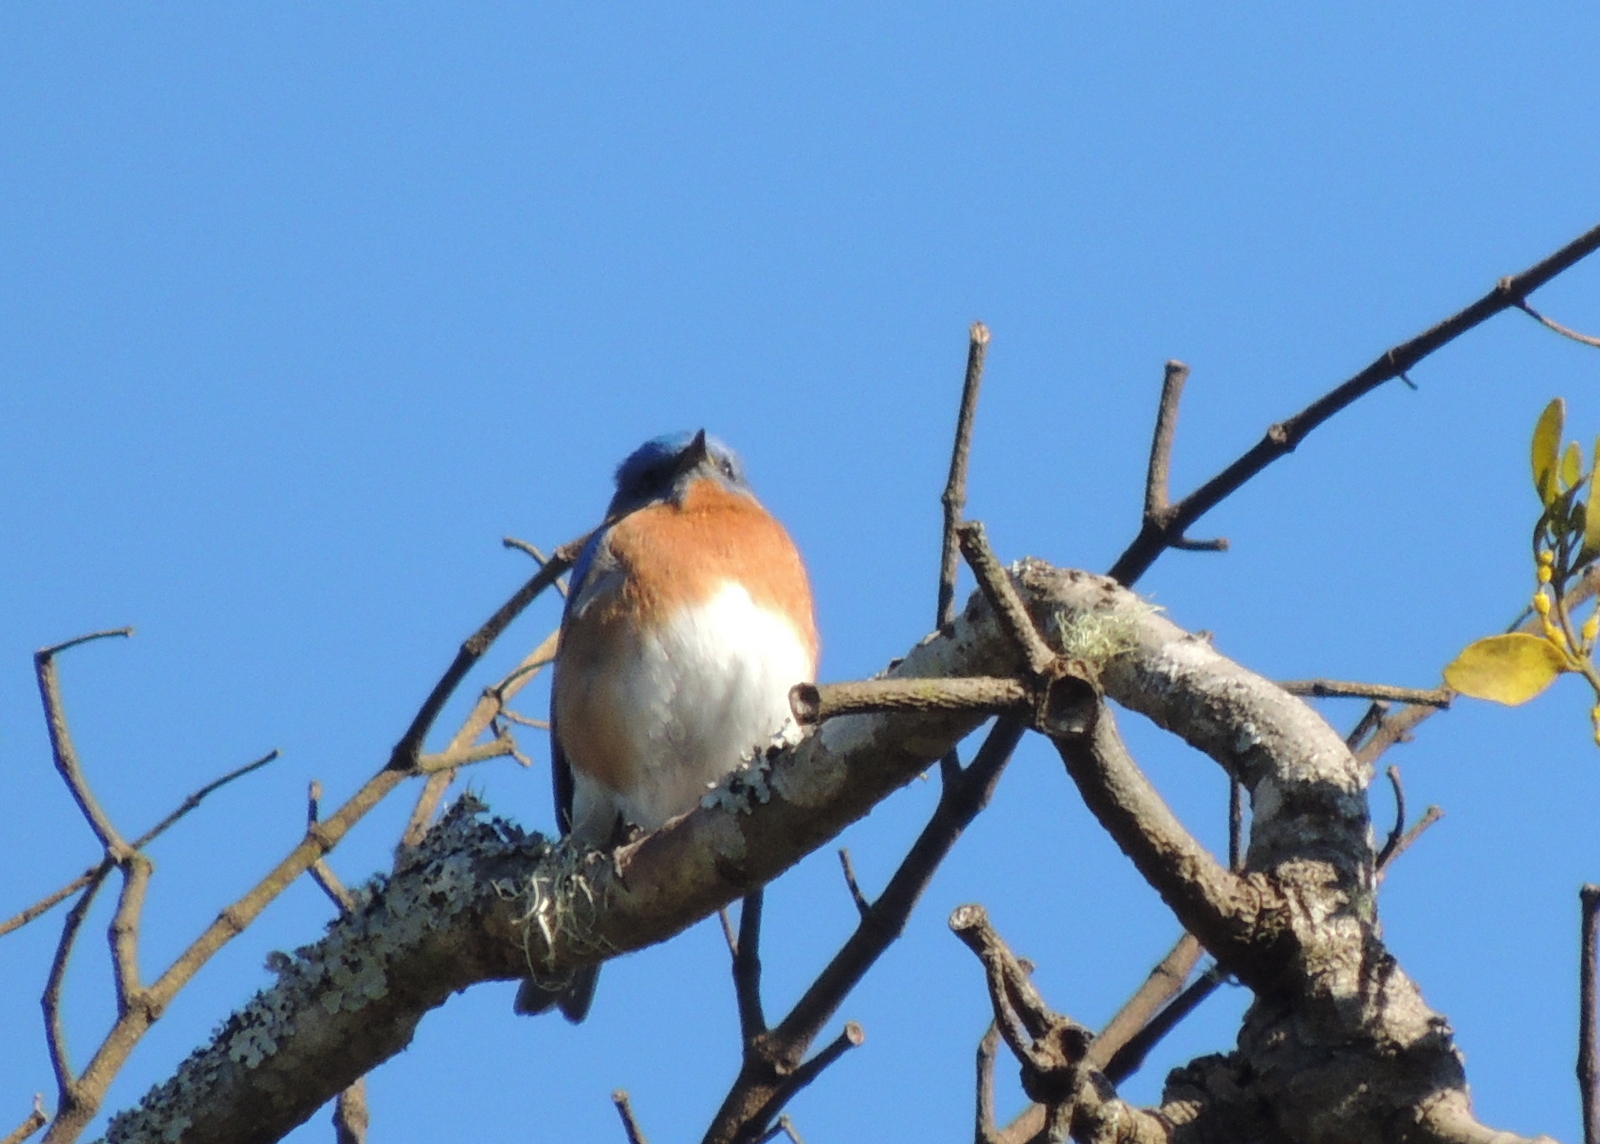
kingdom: Animalia
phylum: Chordata
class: Aves
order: Passeriformes
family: Turdidae
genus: Sialia
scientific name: Sialia sialis
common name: Eastern bluebird
